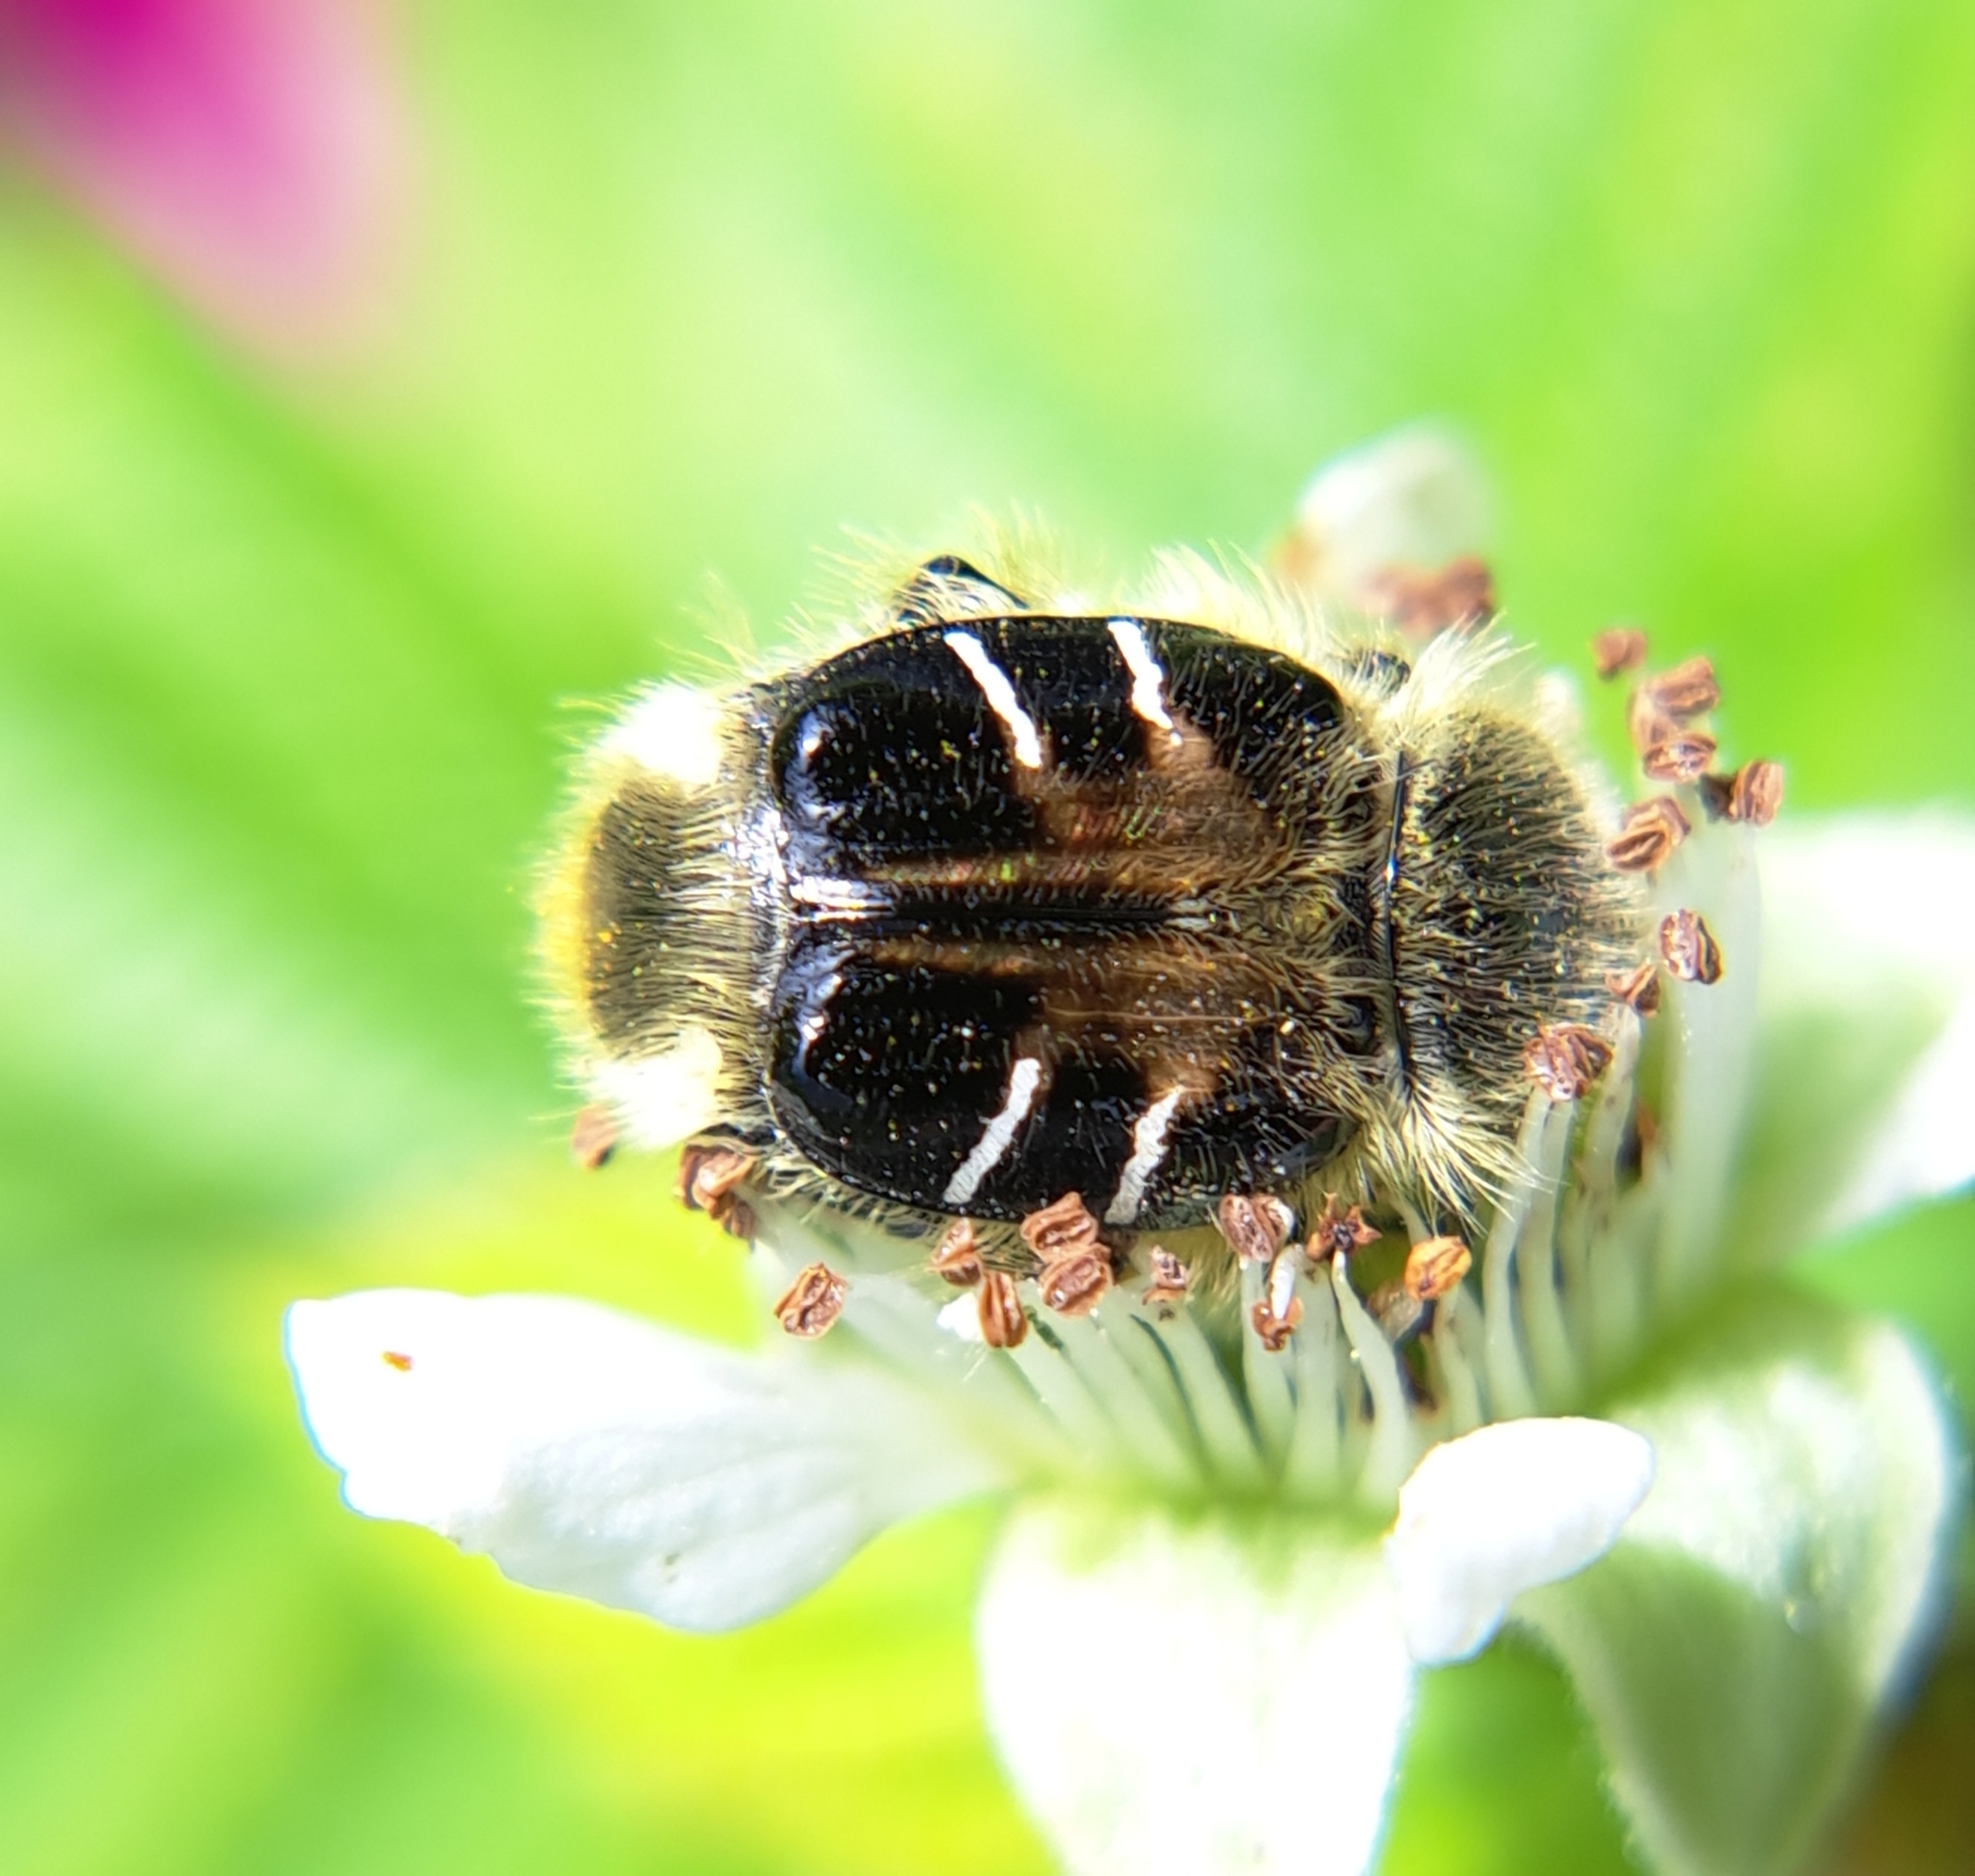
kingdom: Animalia
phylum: Arthropoda
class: Insecta
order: Coleoptera
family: Scarabaeidae
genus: Trichiotinus
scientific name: Trichiotinus assimilis
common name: Bee-mimic beetle
